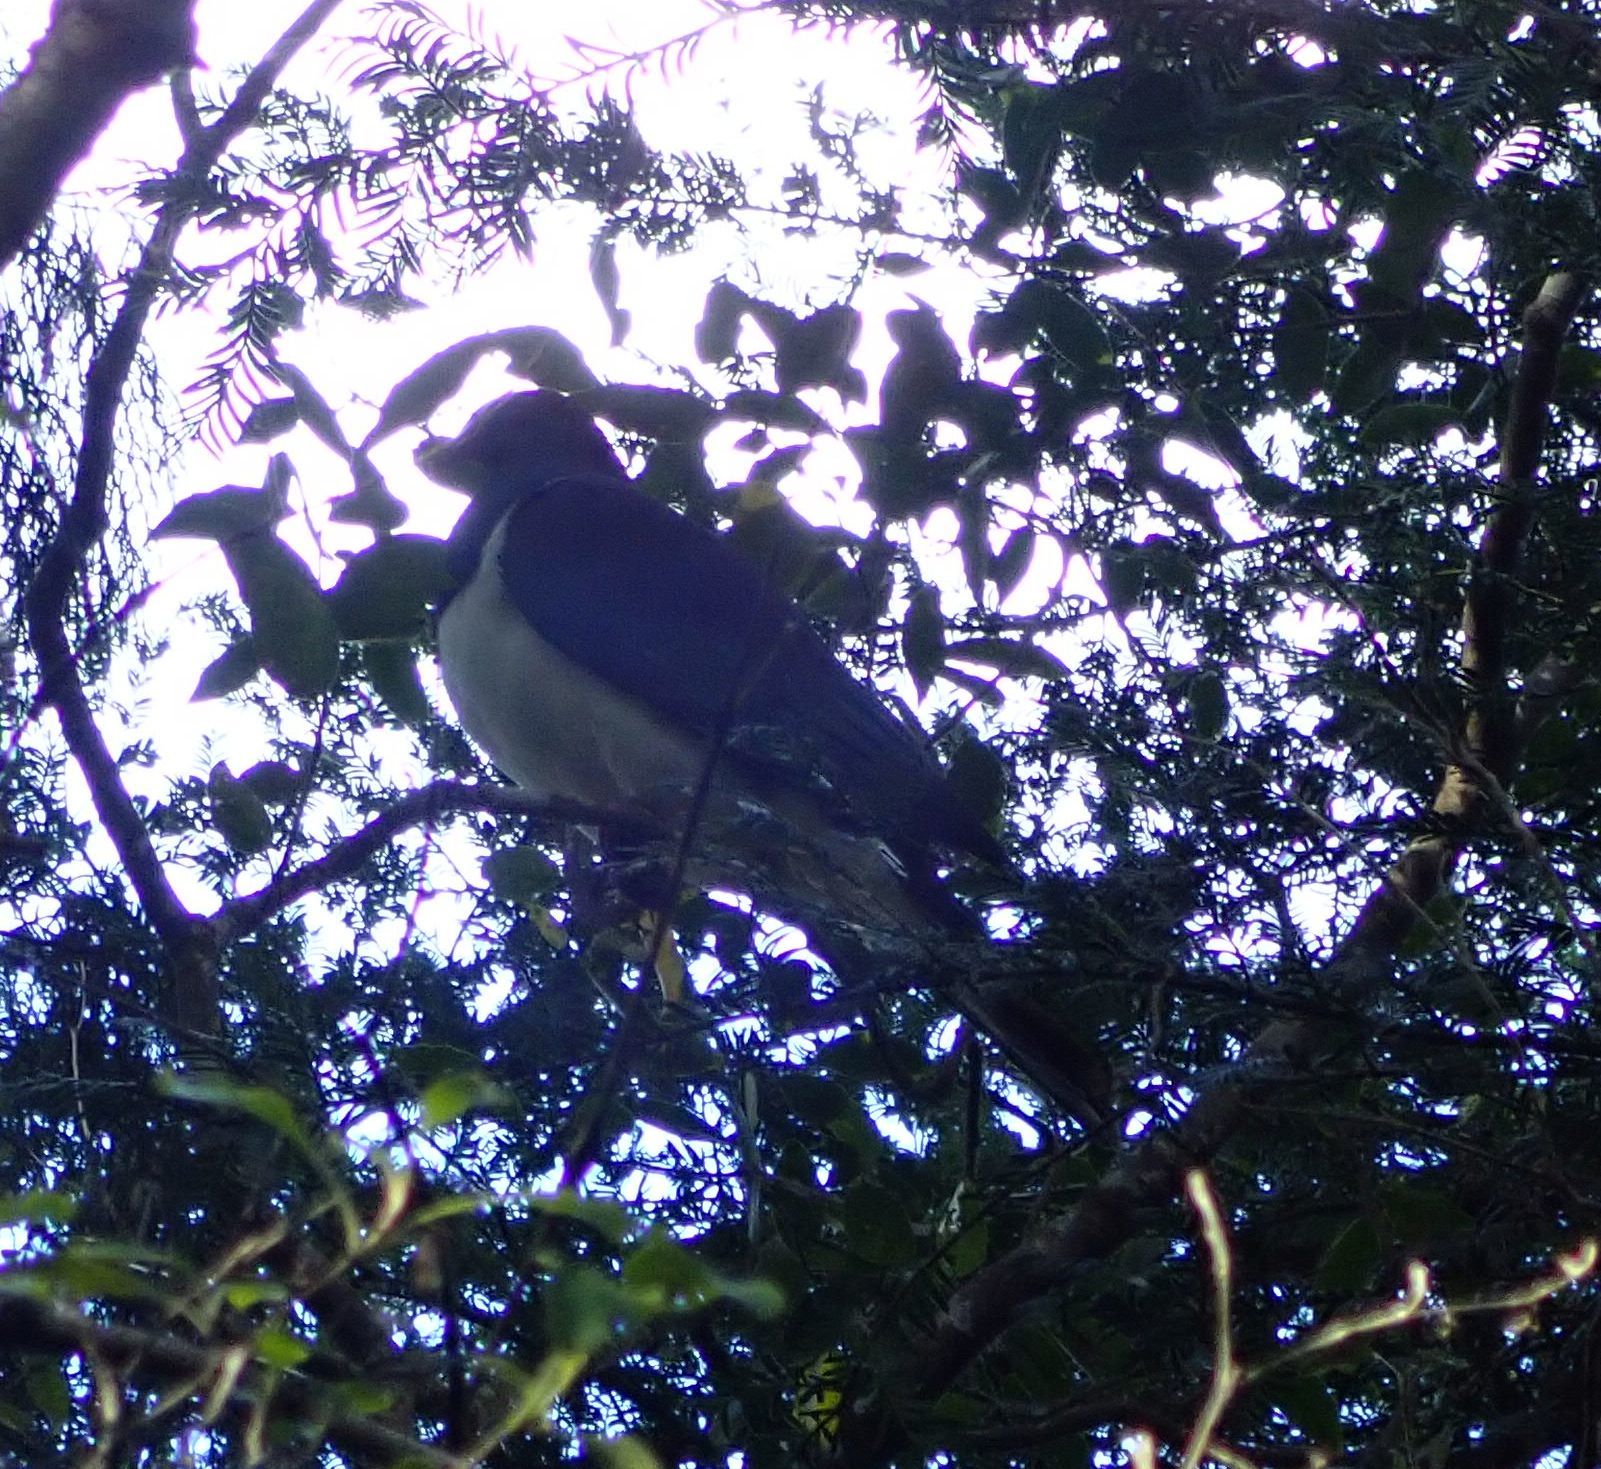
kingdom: Animalia
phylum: Chordata
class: Aves
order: Columbiformes
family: Columbidae
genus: Hemiphaga
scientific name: Hemiphaga novaeseelandiae
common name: New zealand pigeon
